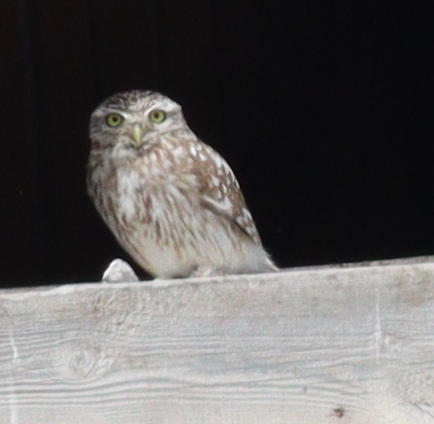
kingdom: Animalia
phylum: Chordata
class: Aves
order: Strigiformes
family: Strigidae
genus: Athene
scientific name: Athene noctua
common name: Little owl
